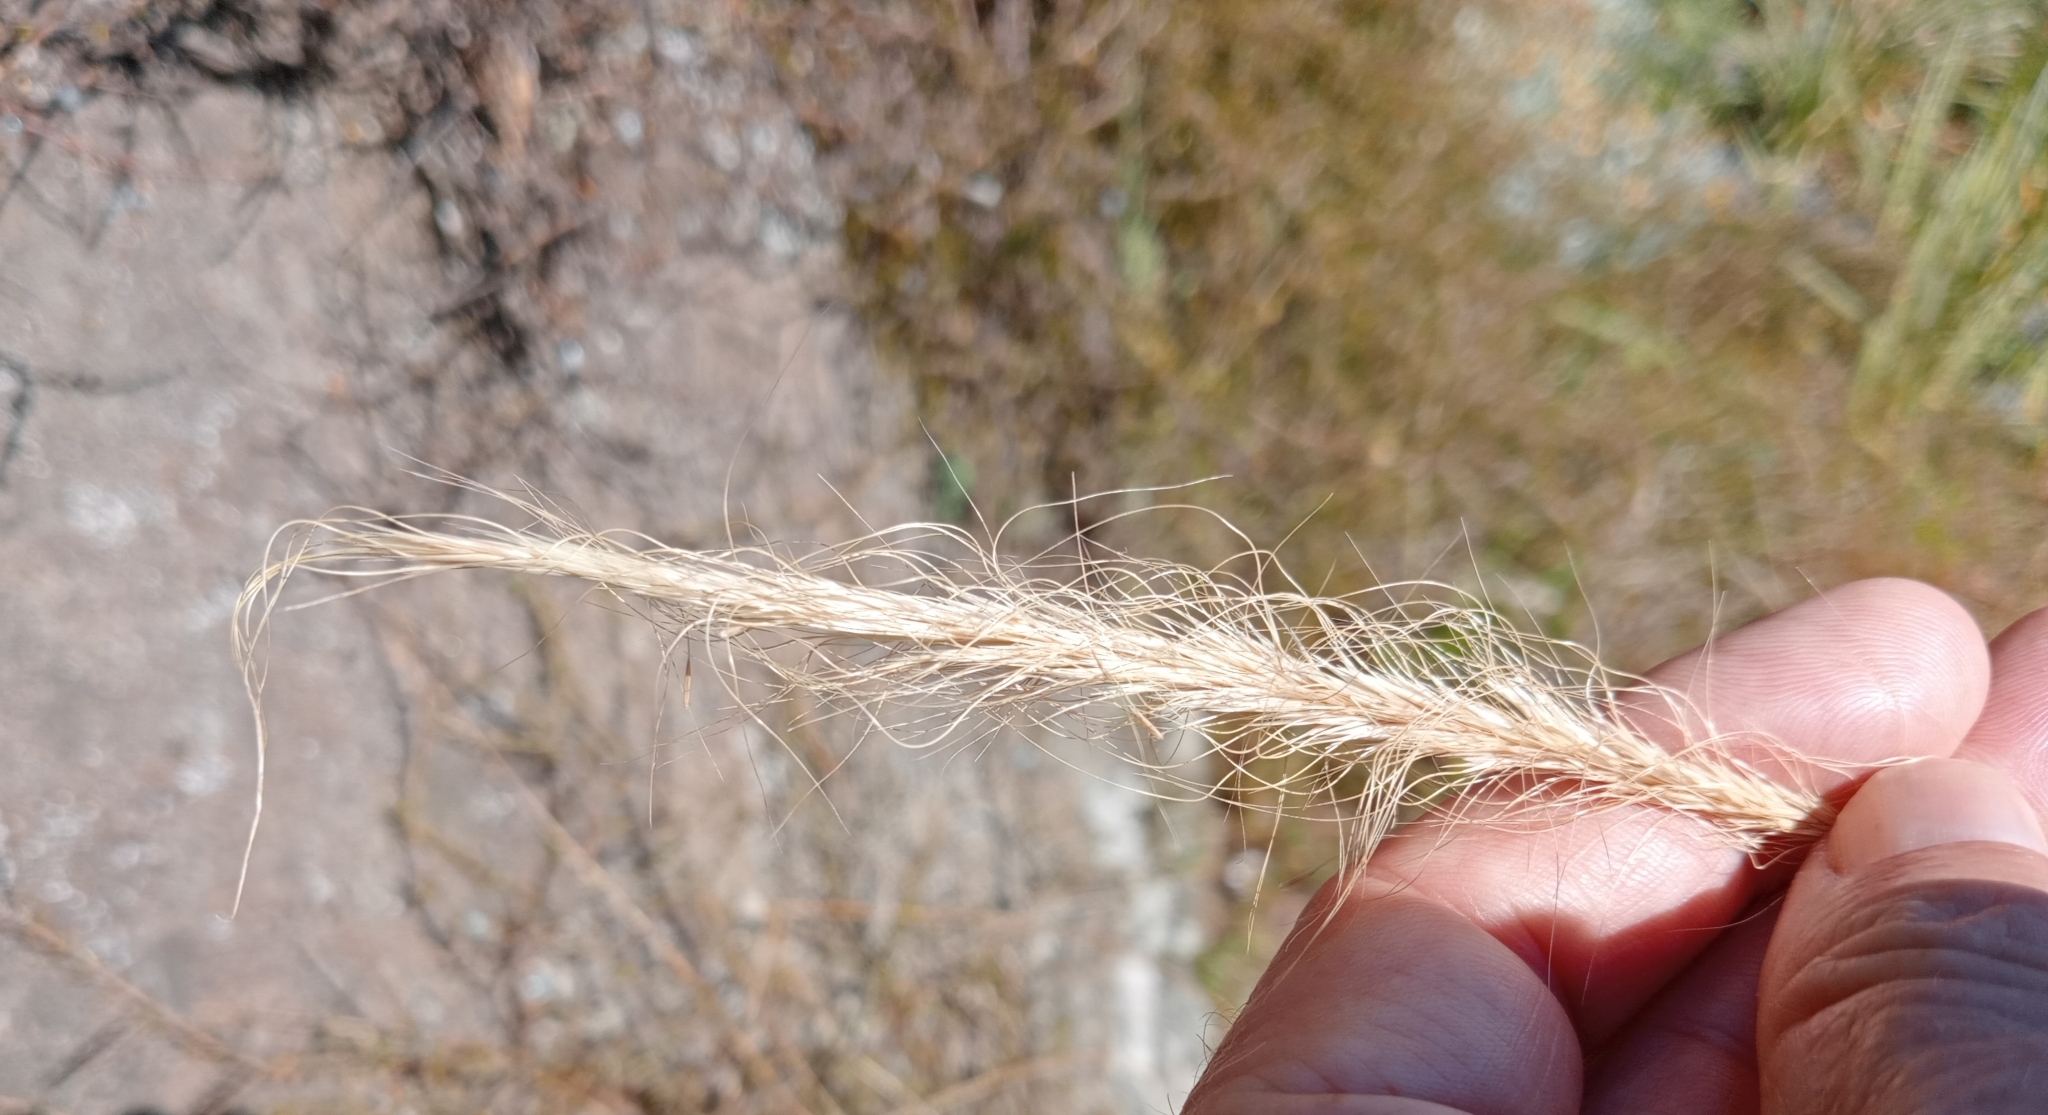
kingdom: Plantae
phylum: Tracheophyta
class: Liliopsida
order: Poales
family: Poaceae
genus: Dichelachne
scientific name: Dichelachne crinita
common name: Clovenfoot plumegrass
